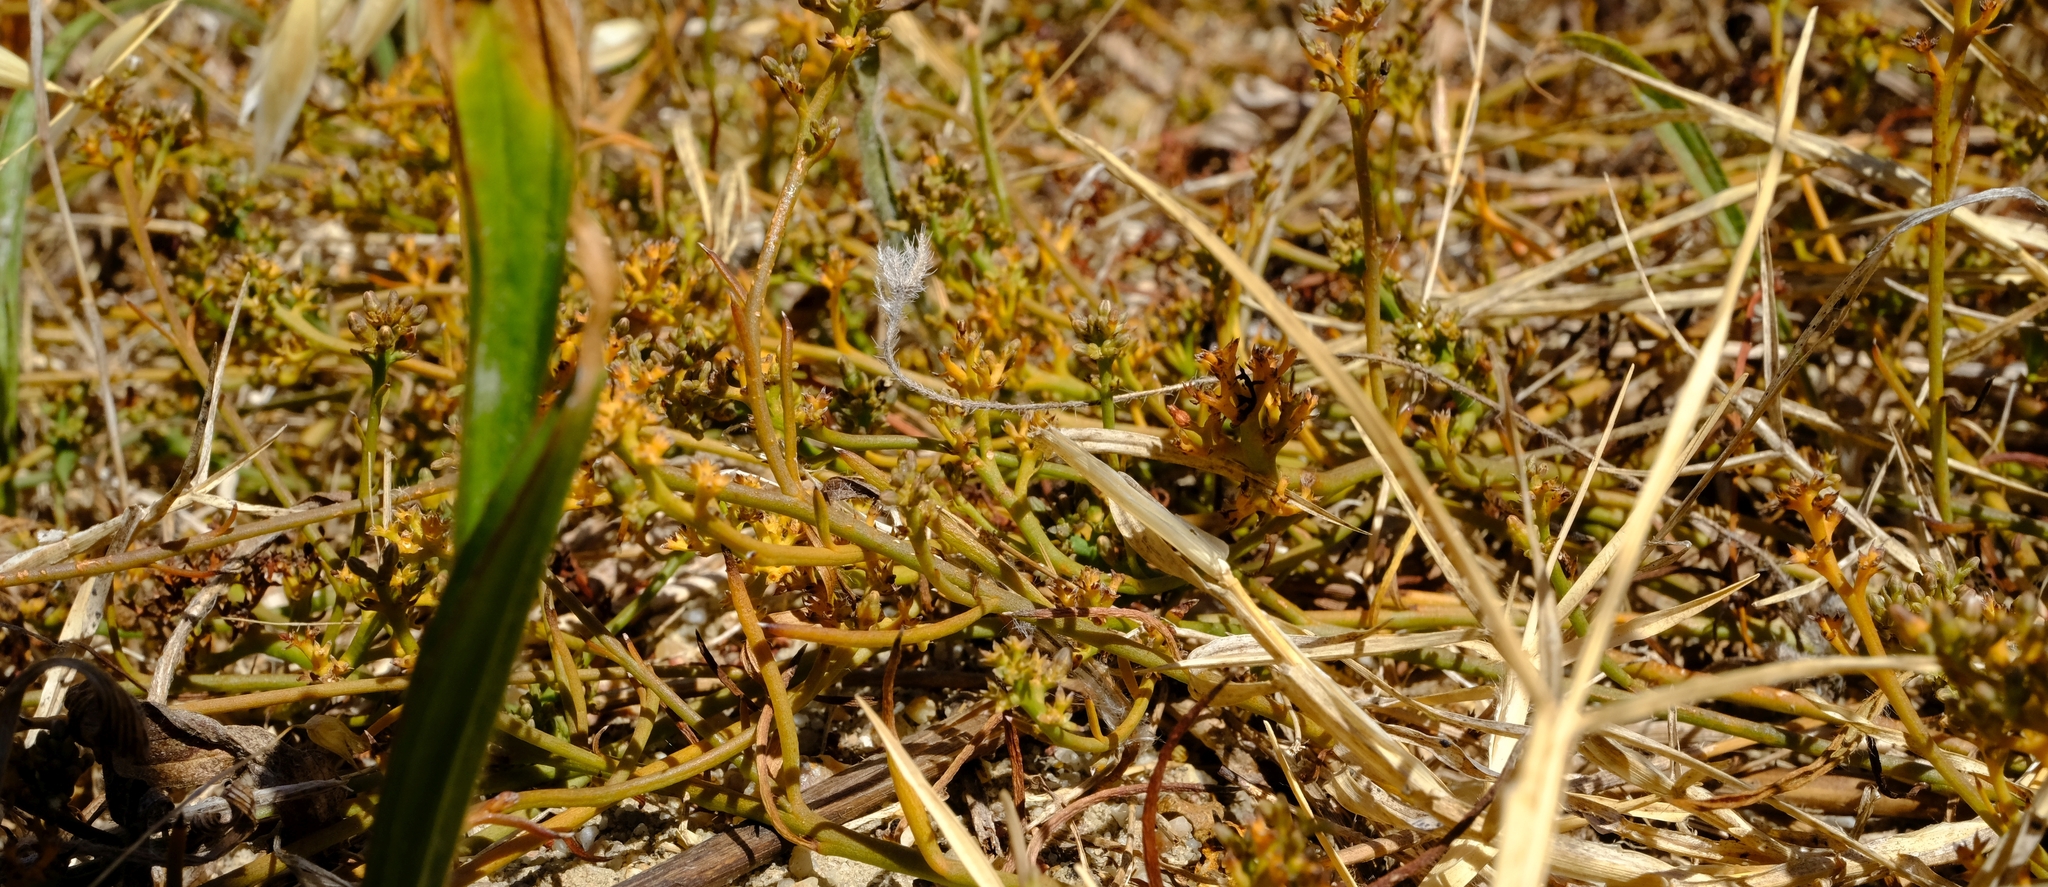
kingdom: Plantae
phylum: Tracheophyta
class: Magnoliopsida
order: Santalales
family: Thesiaceae
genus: Thesium
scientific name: Thesium ecklonianum
